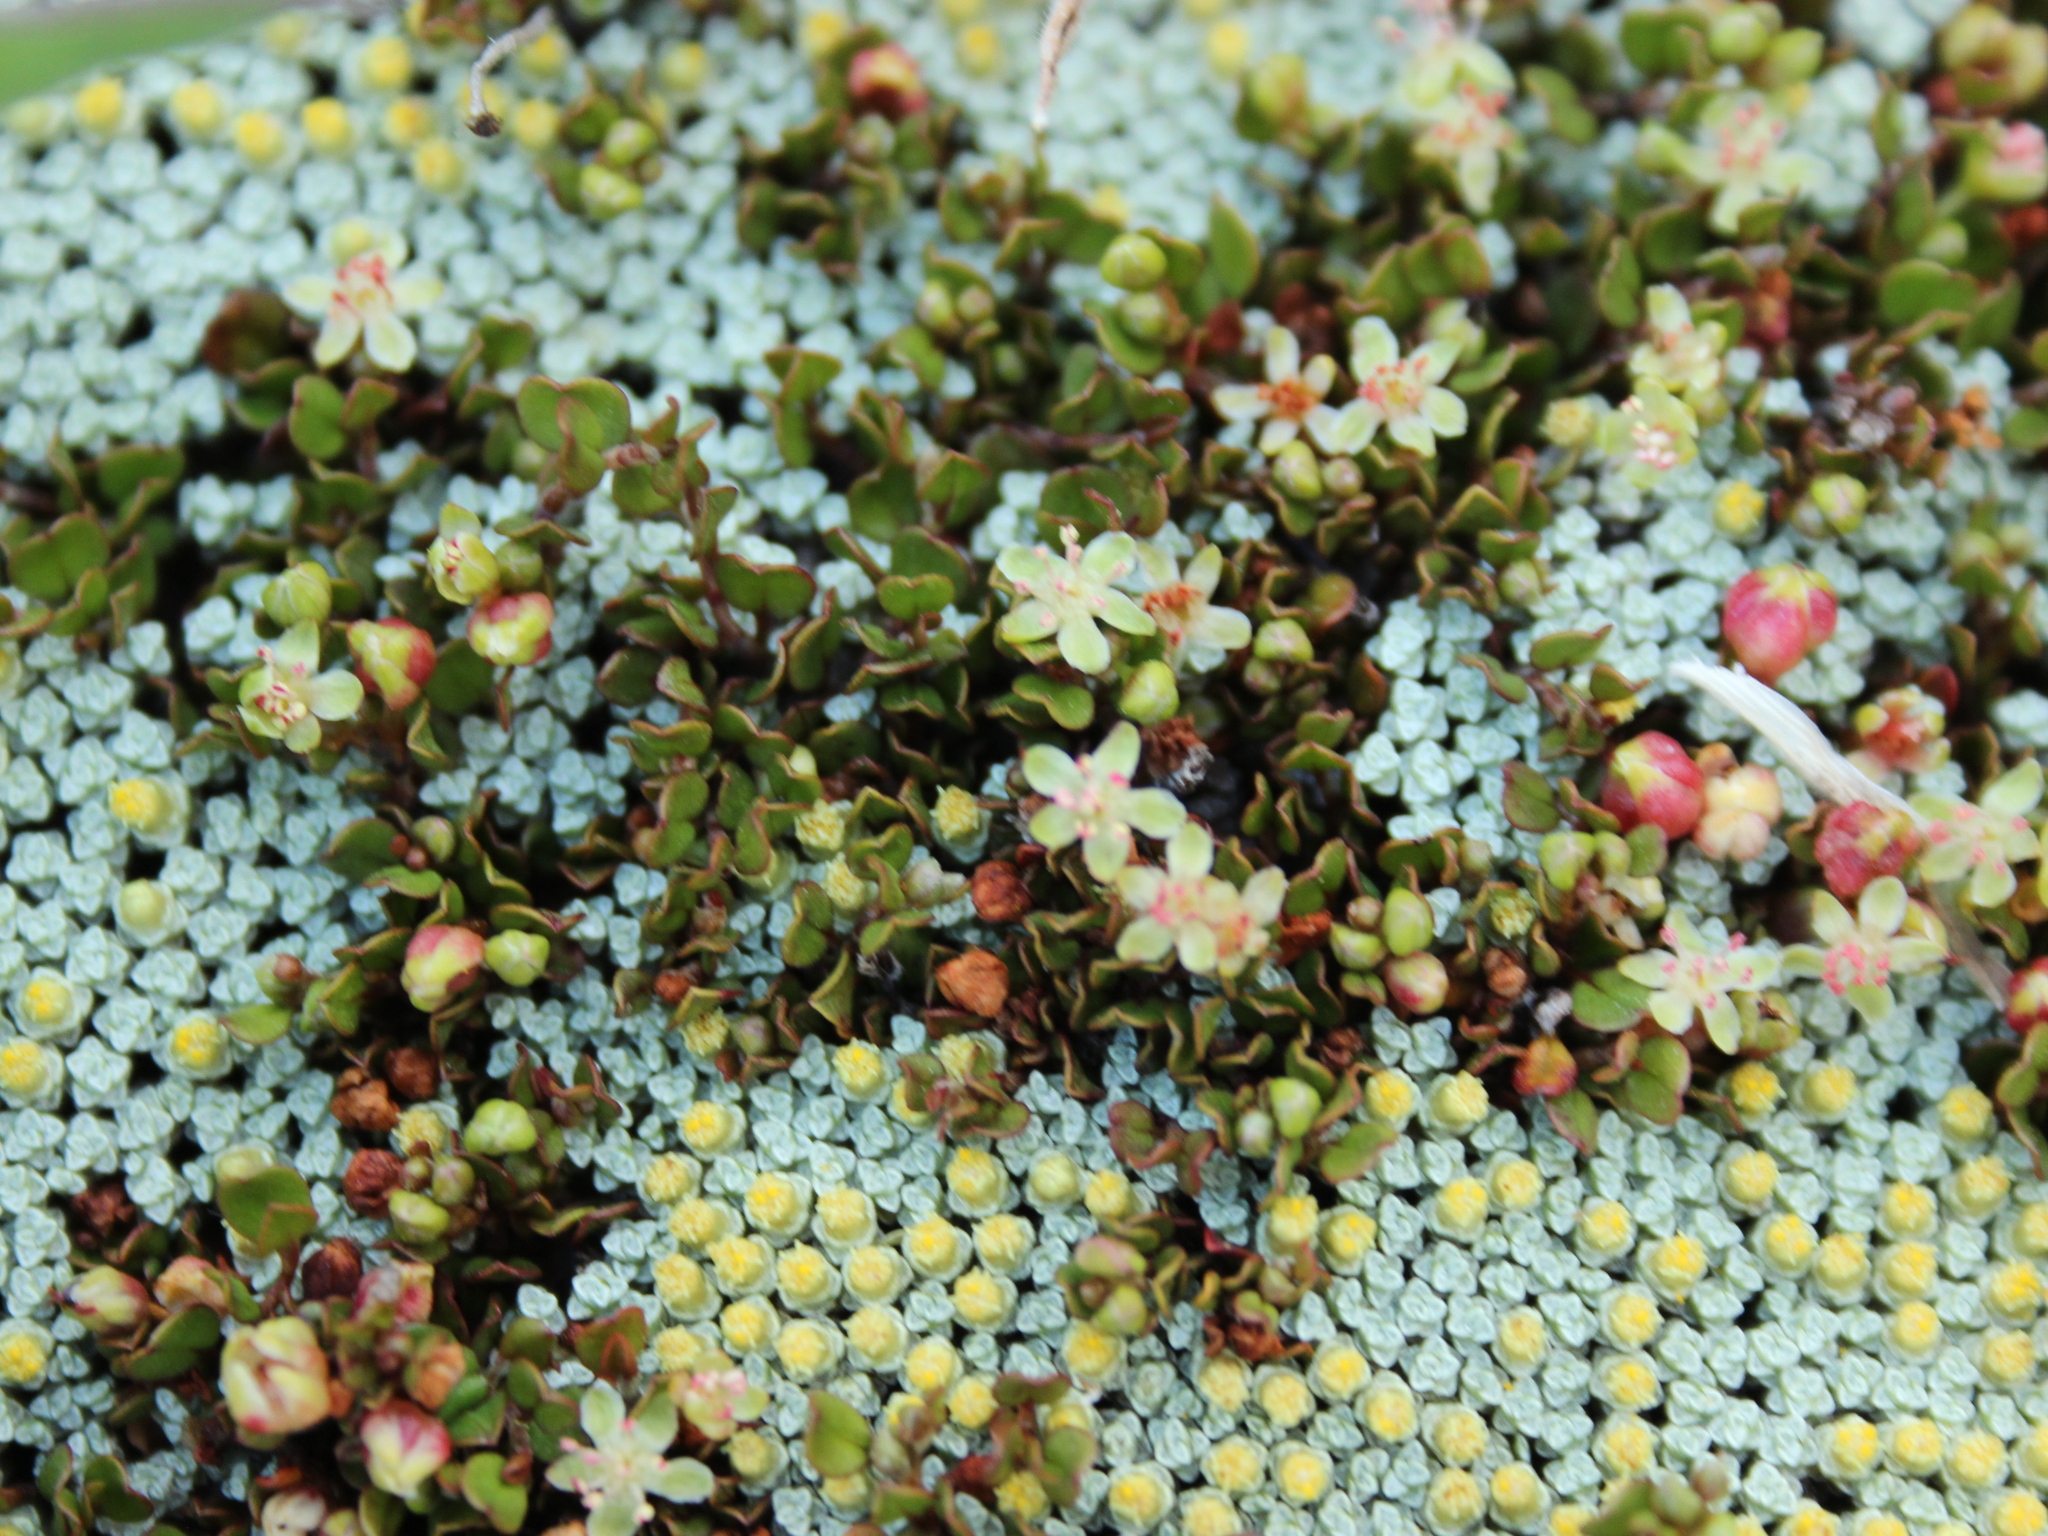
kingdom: Plantae
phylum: Tracheophyta
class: Magnoliopsida
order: Caryophyllales
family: Polygonaceae
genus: Muehlenbeckia
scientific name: Muehlenbeckia axillaris
